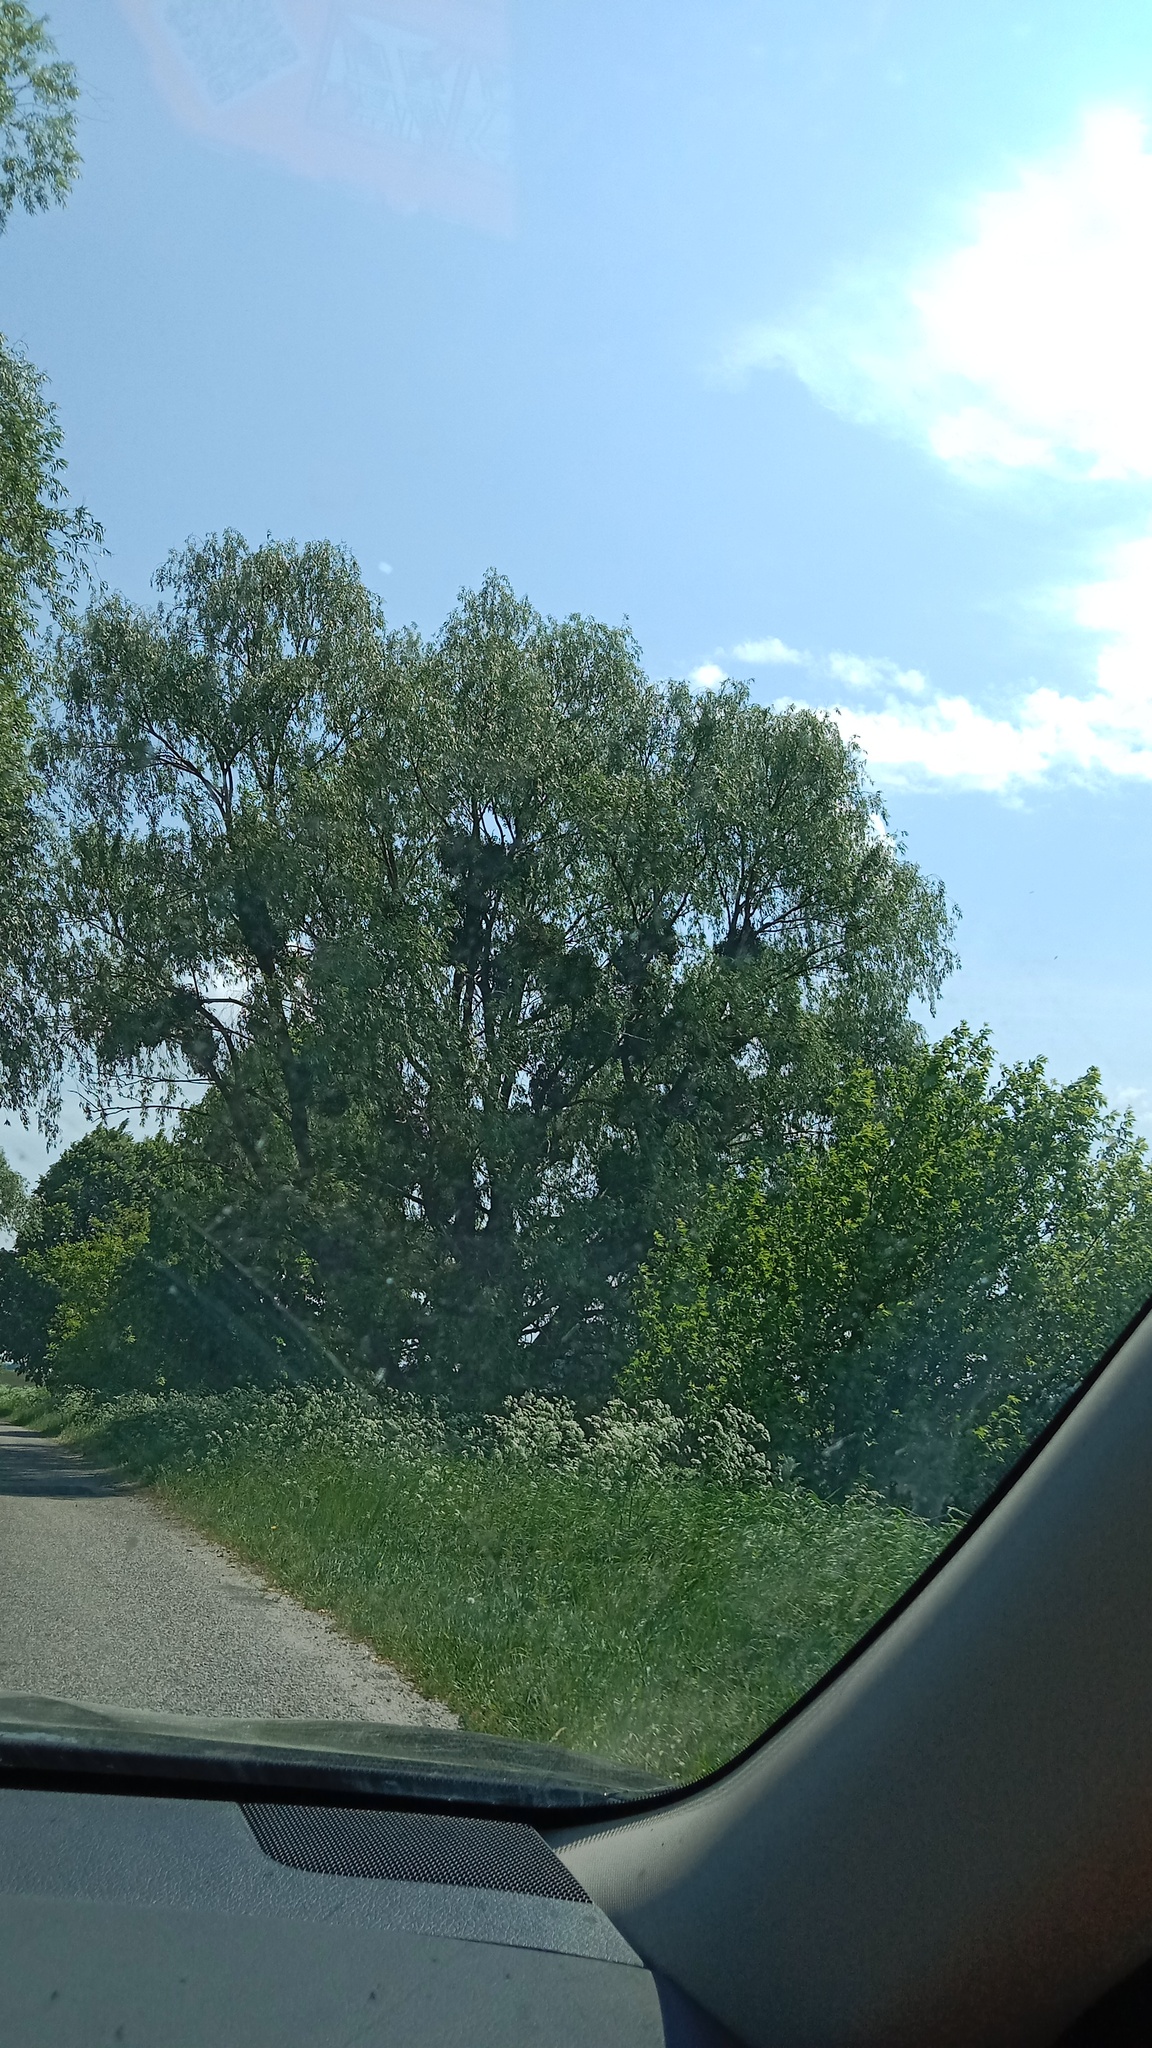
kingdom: Plantae
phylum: Tracheophyta
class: Magnoliopsida
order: Santalales
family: Viscaceae
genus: Viscum
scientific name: Viscum album
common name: Mistletoe
